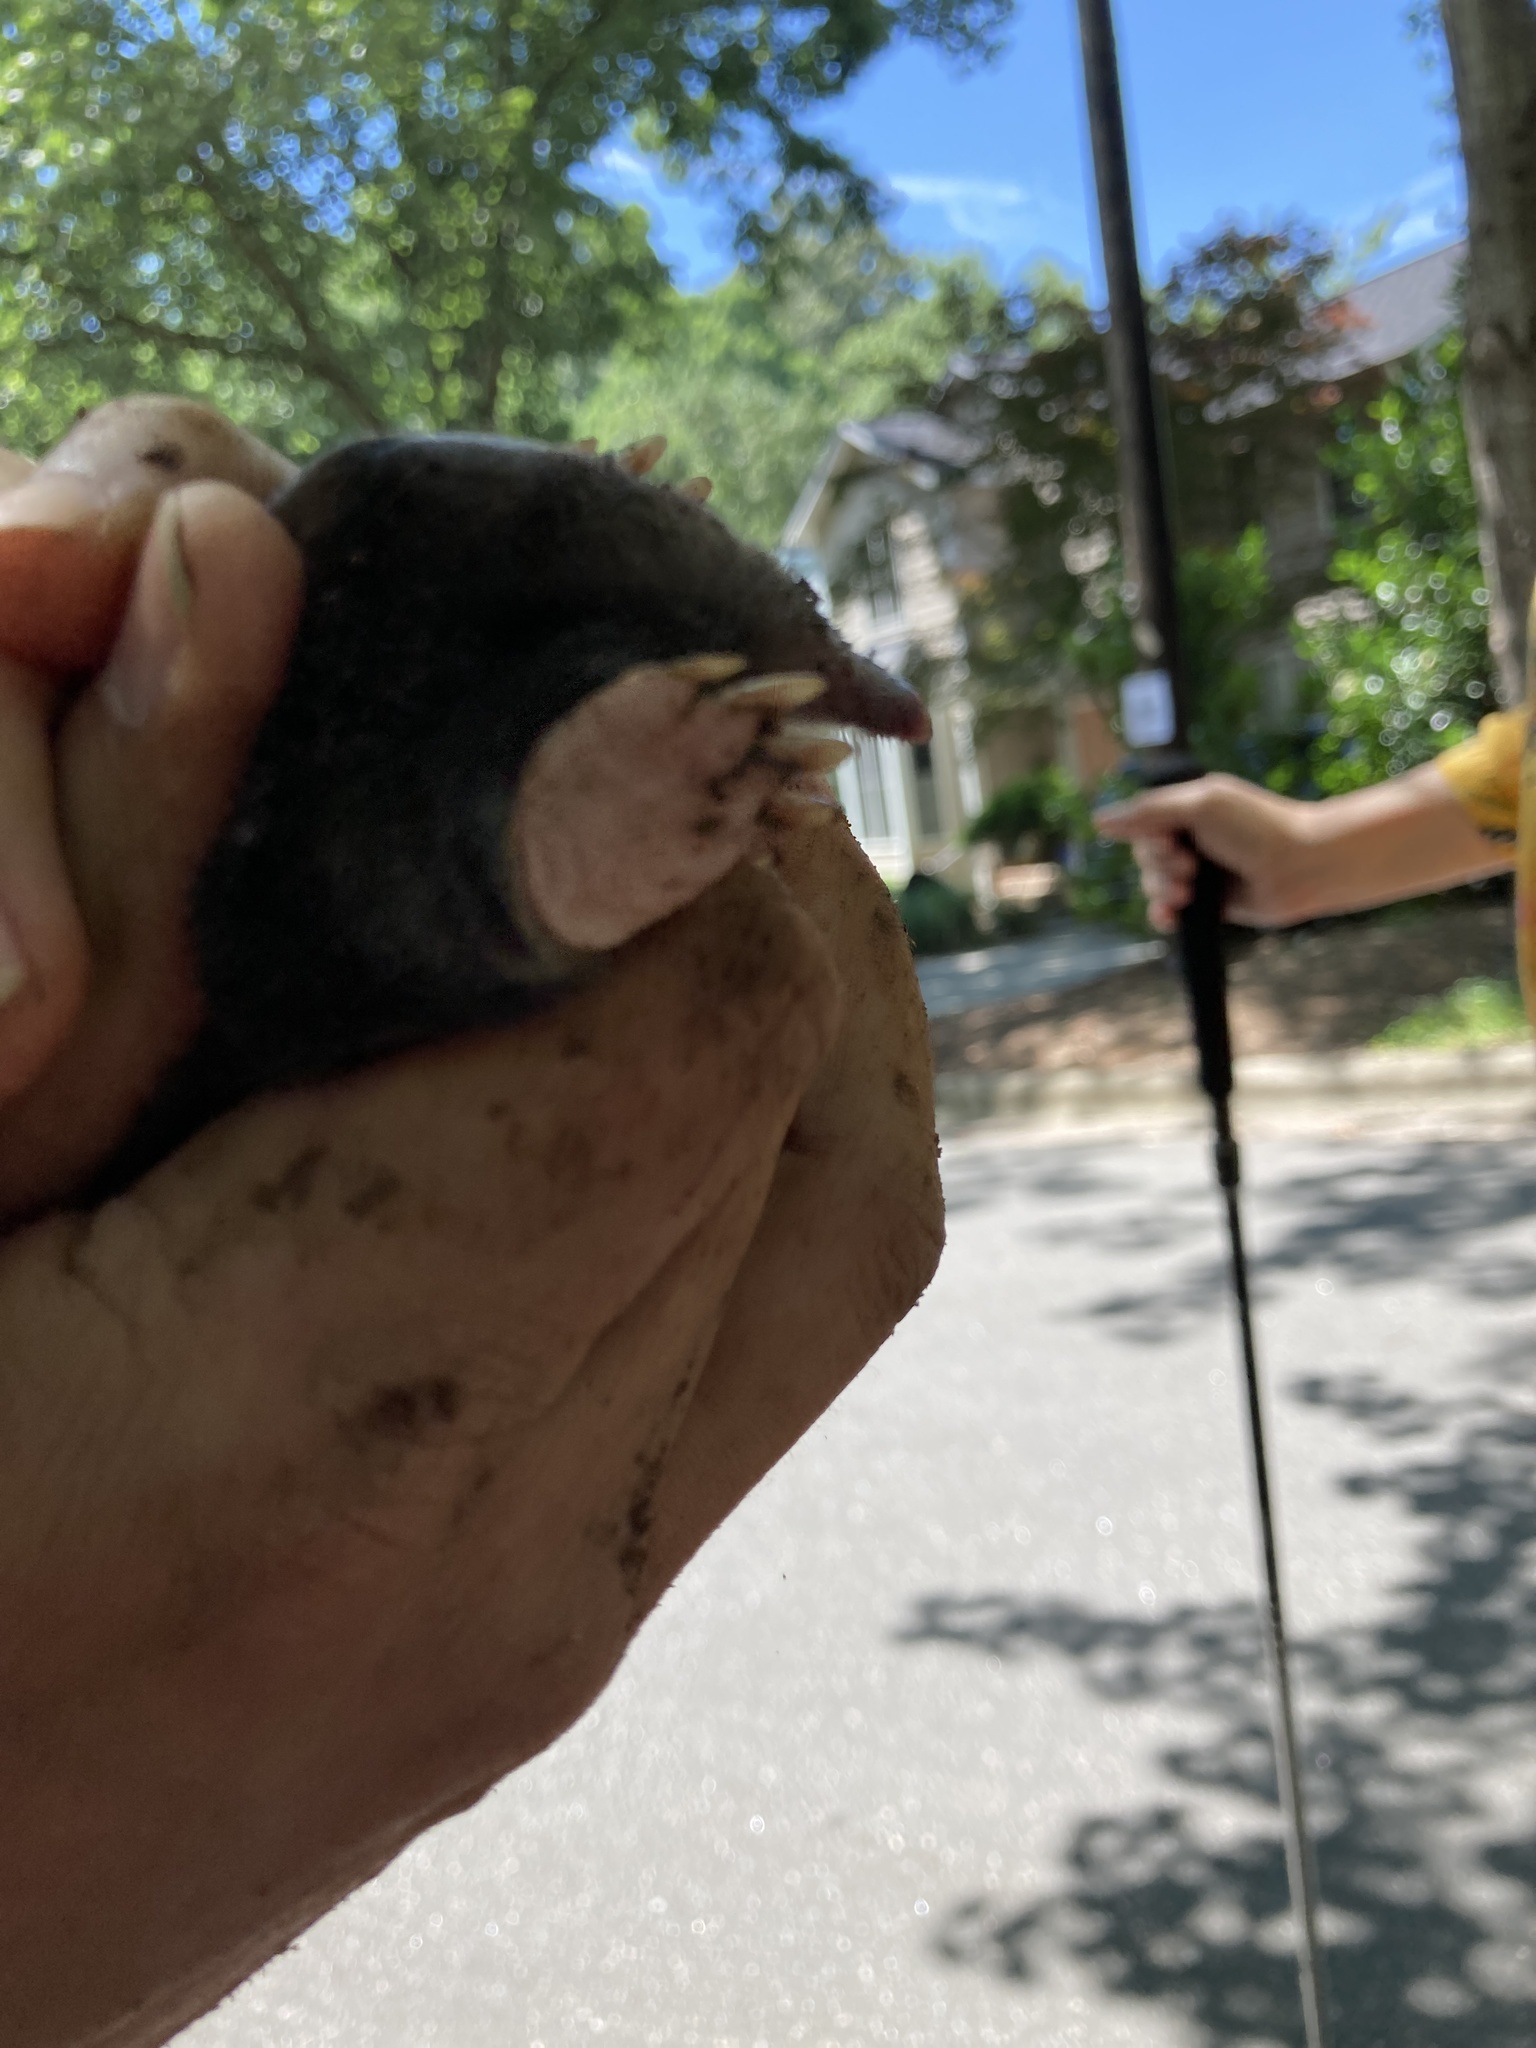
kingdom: Animalia
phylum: Chordata
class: Mammalia
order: Soricomorpha
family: Talpidae
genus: Scalopus
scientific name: Scalopus aquaticus
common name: Eastern mole
